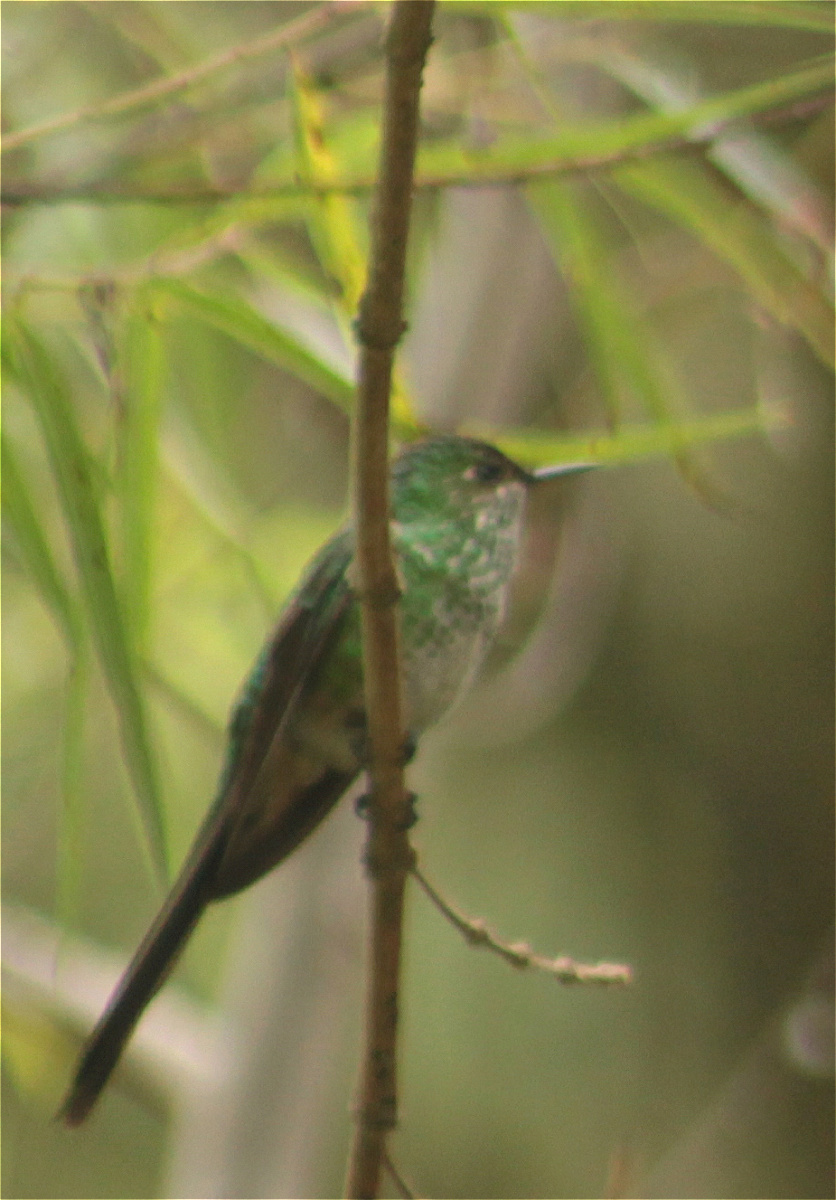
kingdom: Animalia
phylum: Chordata
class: Aves
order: Apodiformes
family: Trochilidae
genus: Lesbia
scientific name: Lesbia nuna
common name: Green-tailed trainbearer
